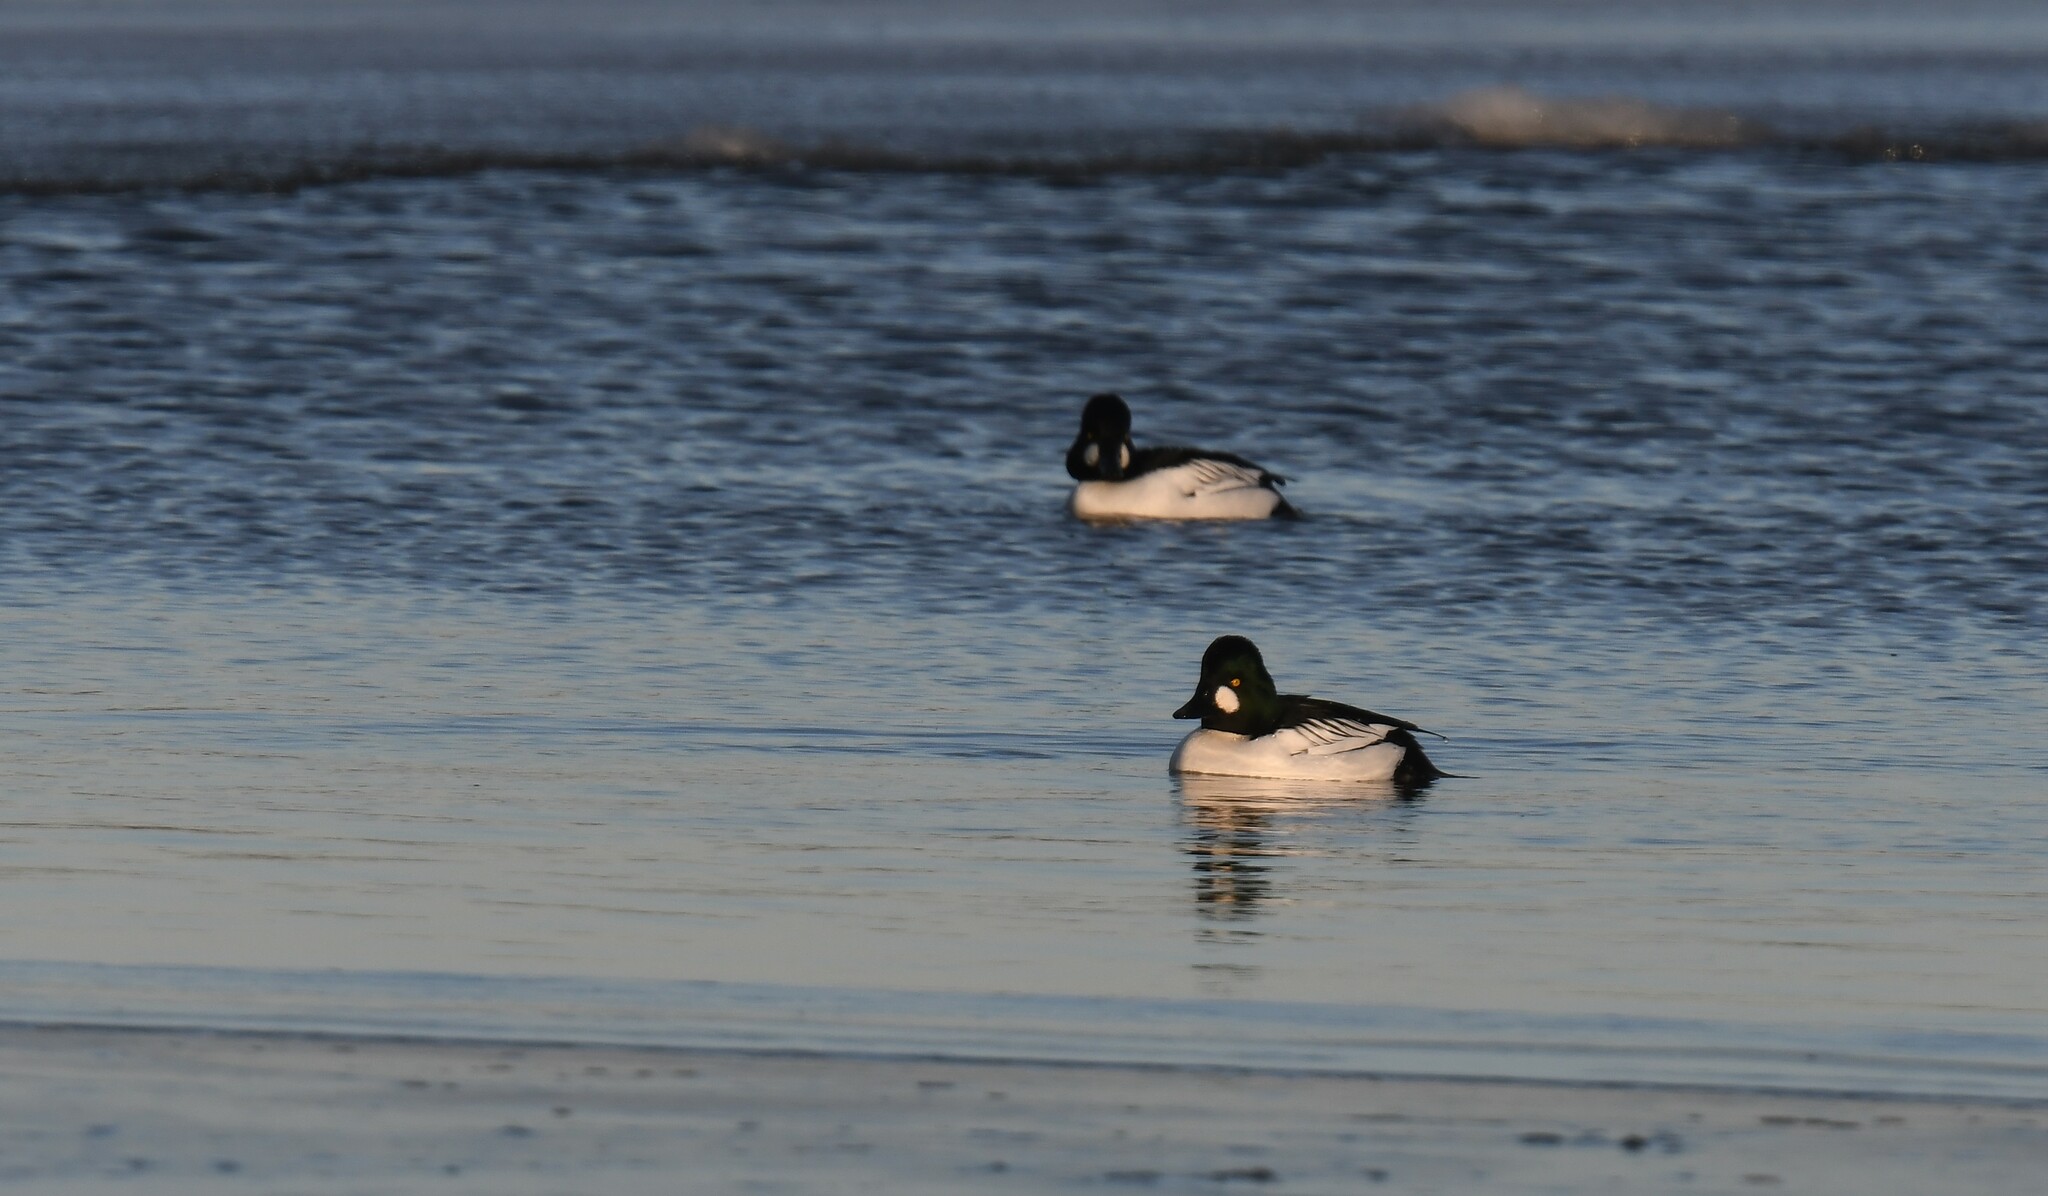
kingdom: Animalia
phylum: Chordata
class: Aves
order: Anseriformes
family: Anatidae
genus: Bucephala
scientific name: Bucephala clangula
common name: Common goldeneye
